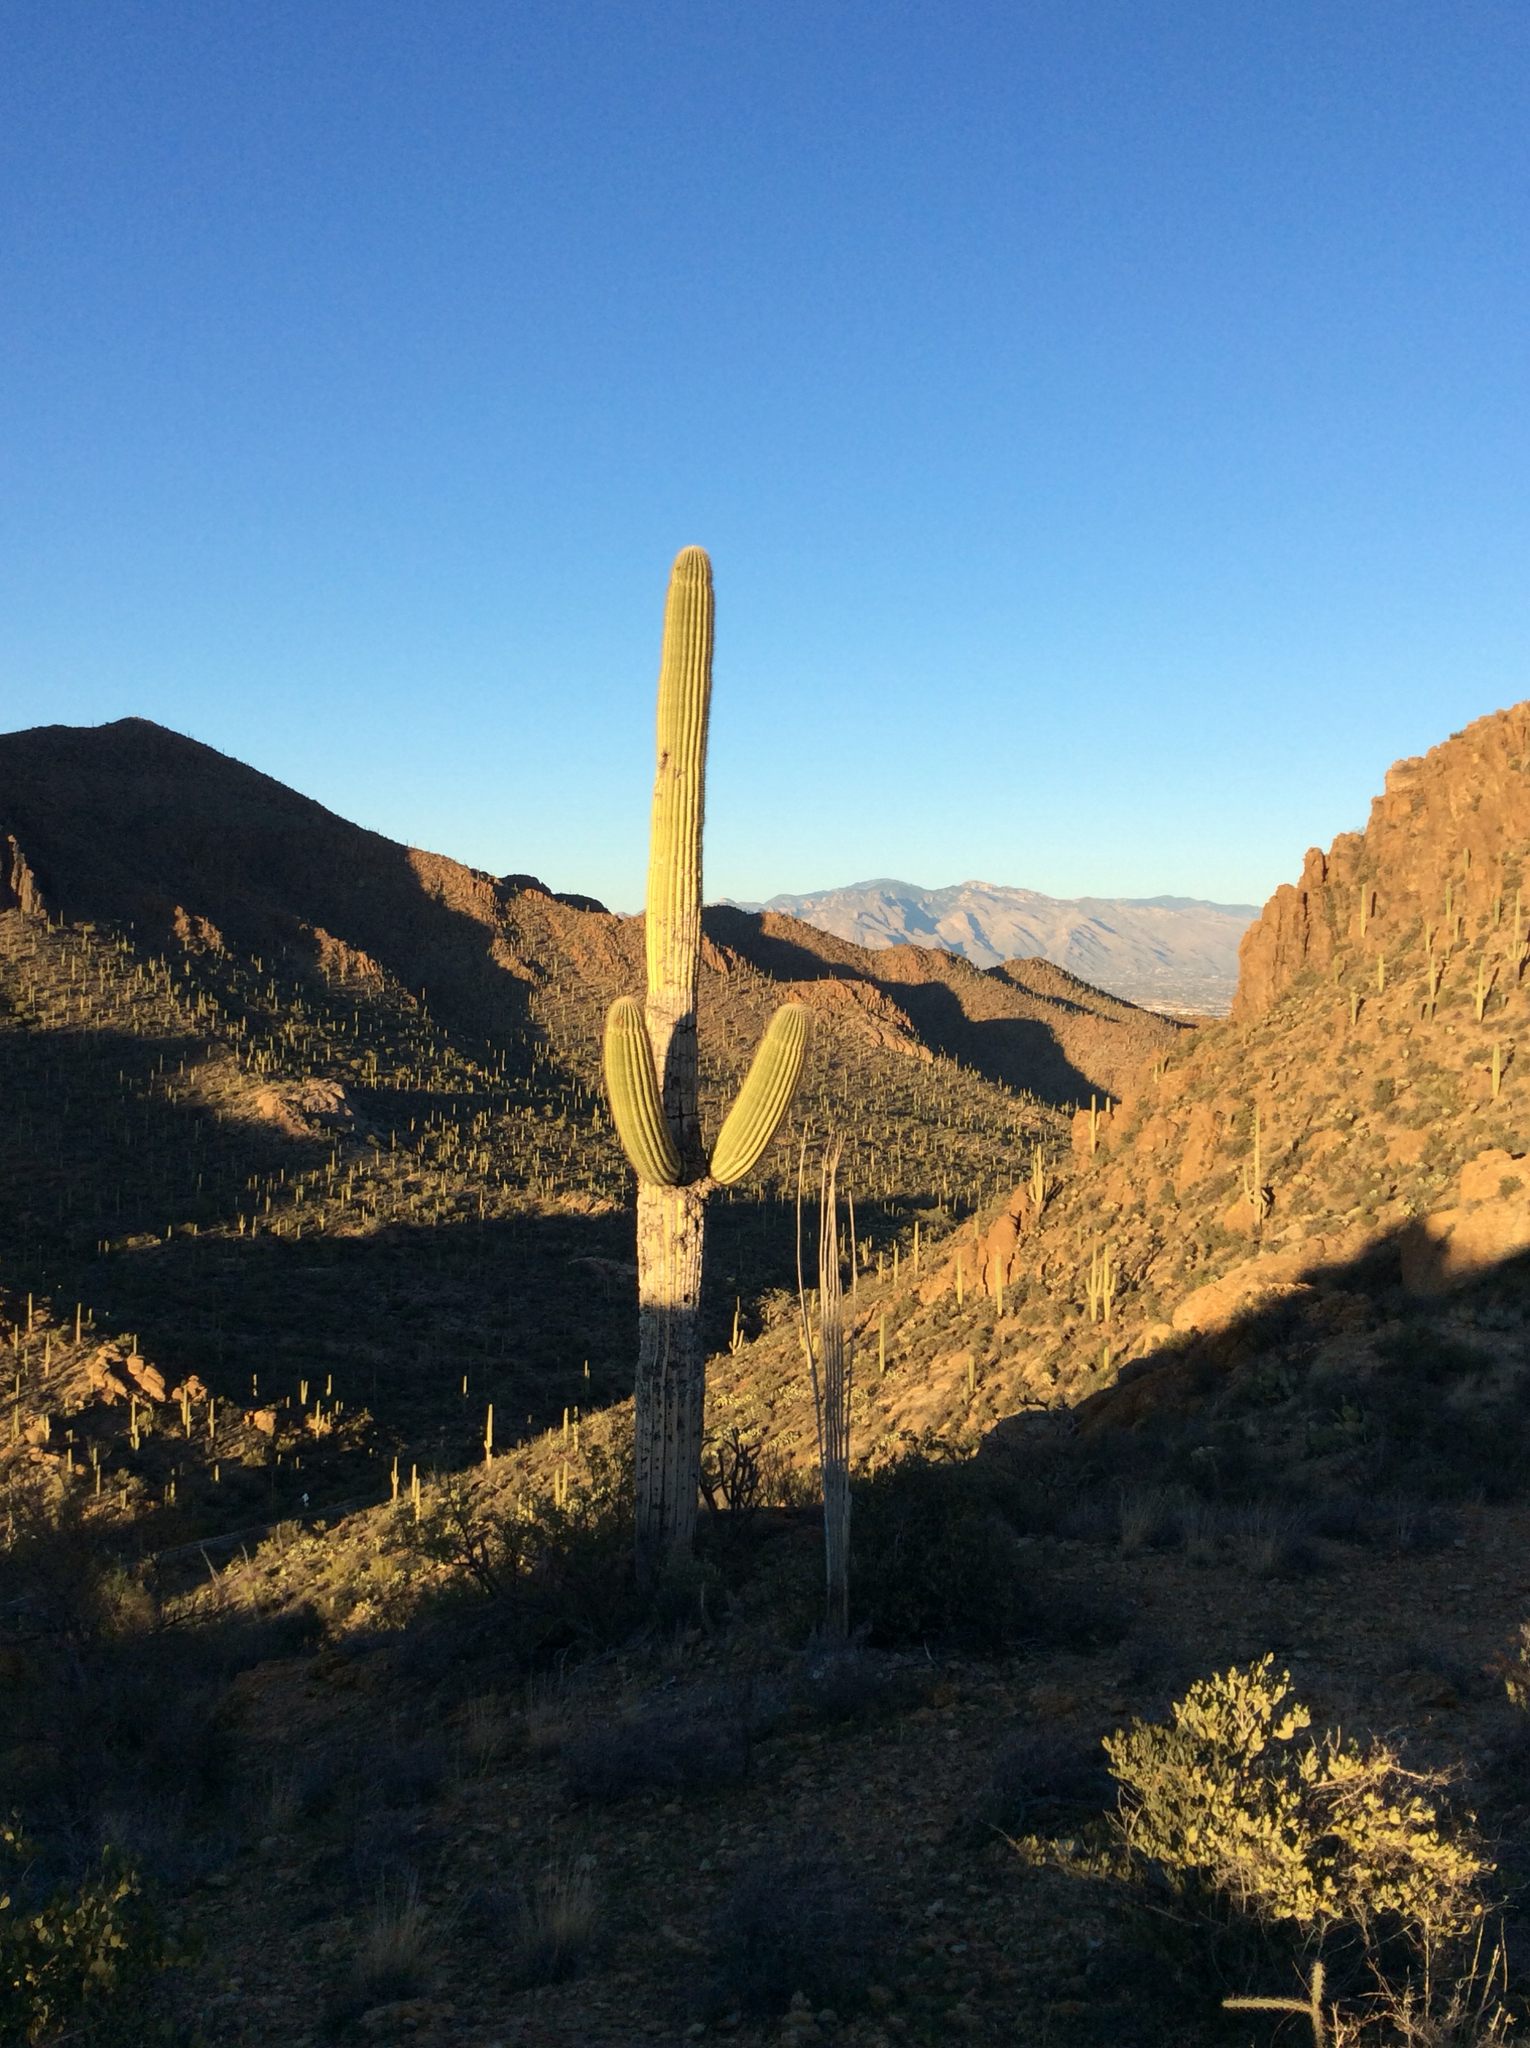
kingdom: Plantae
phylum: Tracheophyta
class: Magnoliopsida
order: Caryophyllales
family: Cactaceae
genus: Carnegiea
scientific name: Carnegiea gigantea
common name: Saguaro
